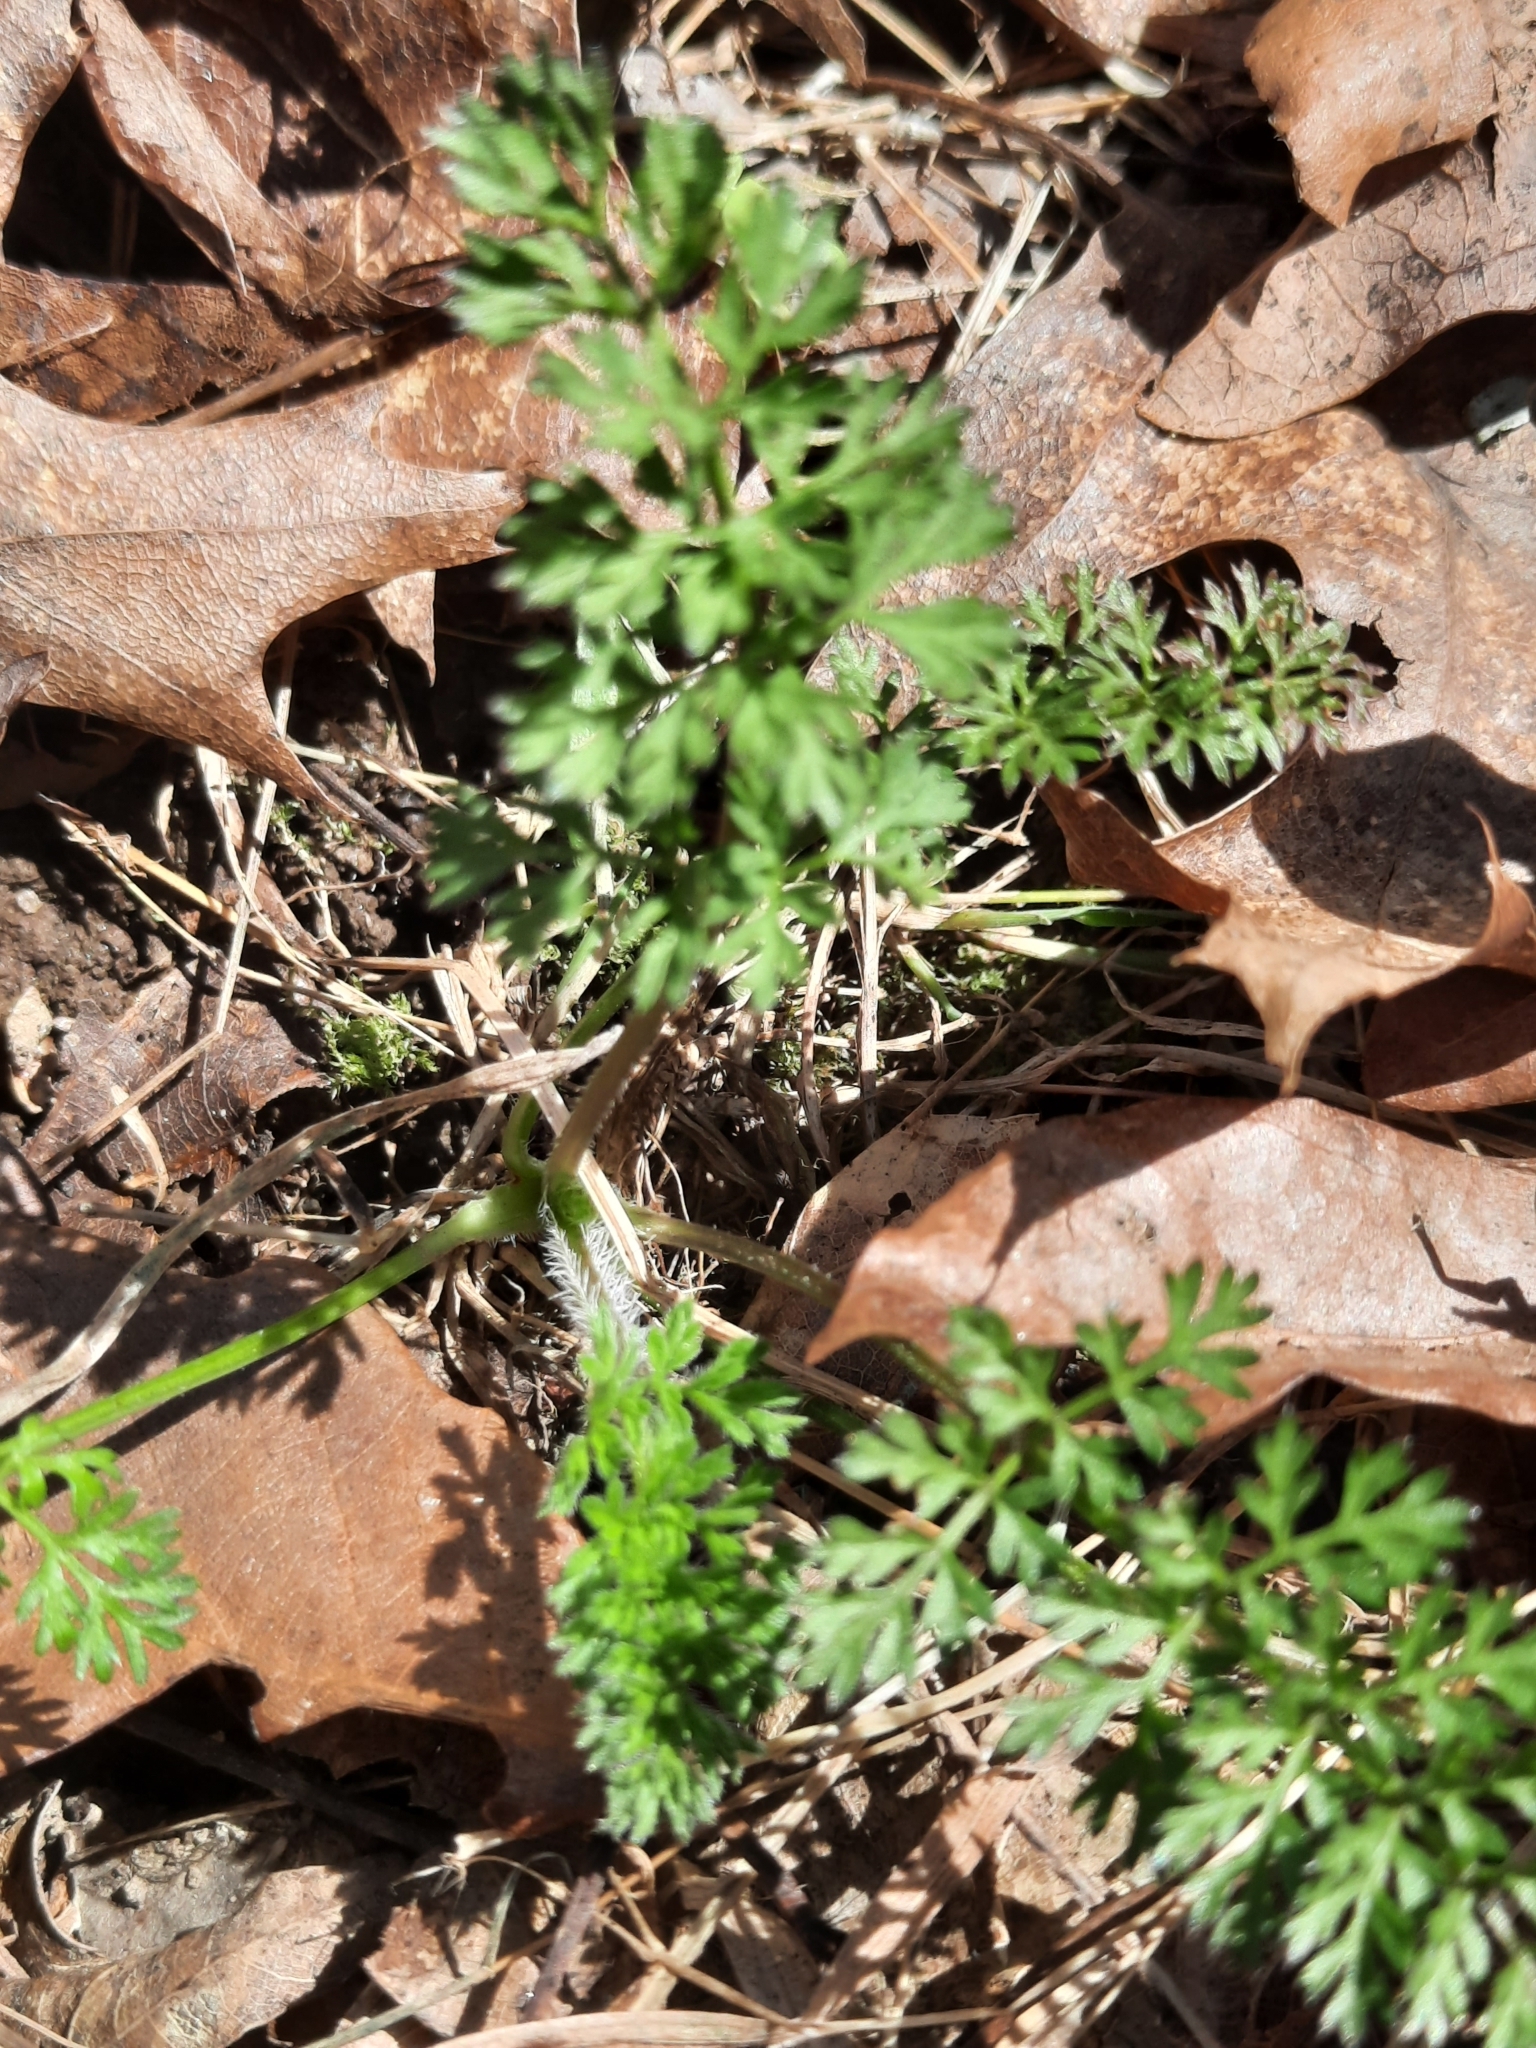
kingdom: Plantae
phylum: Tracheophyta
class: Magnoliopsida
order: Apiales
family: Apiaceae
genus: Daucus
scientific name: Daucus carota
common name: Wild carrot
